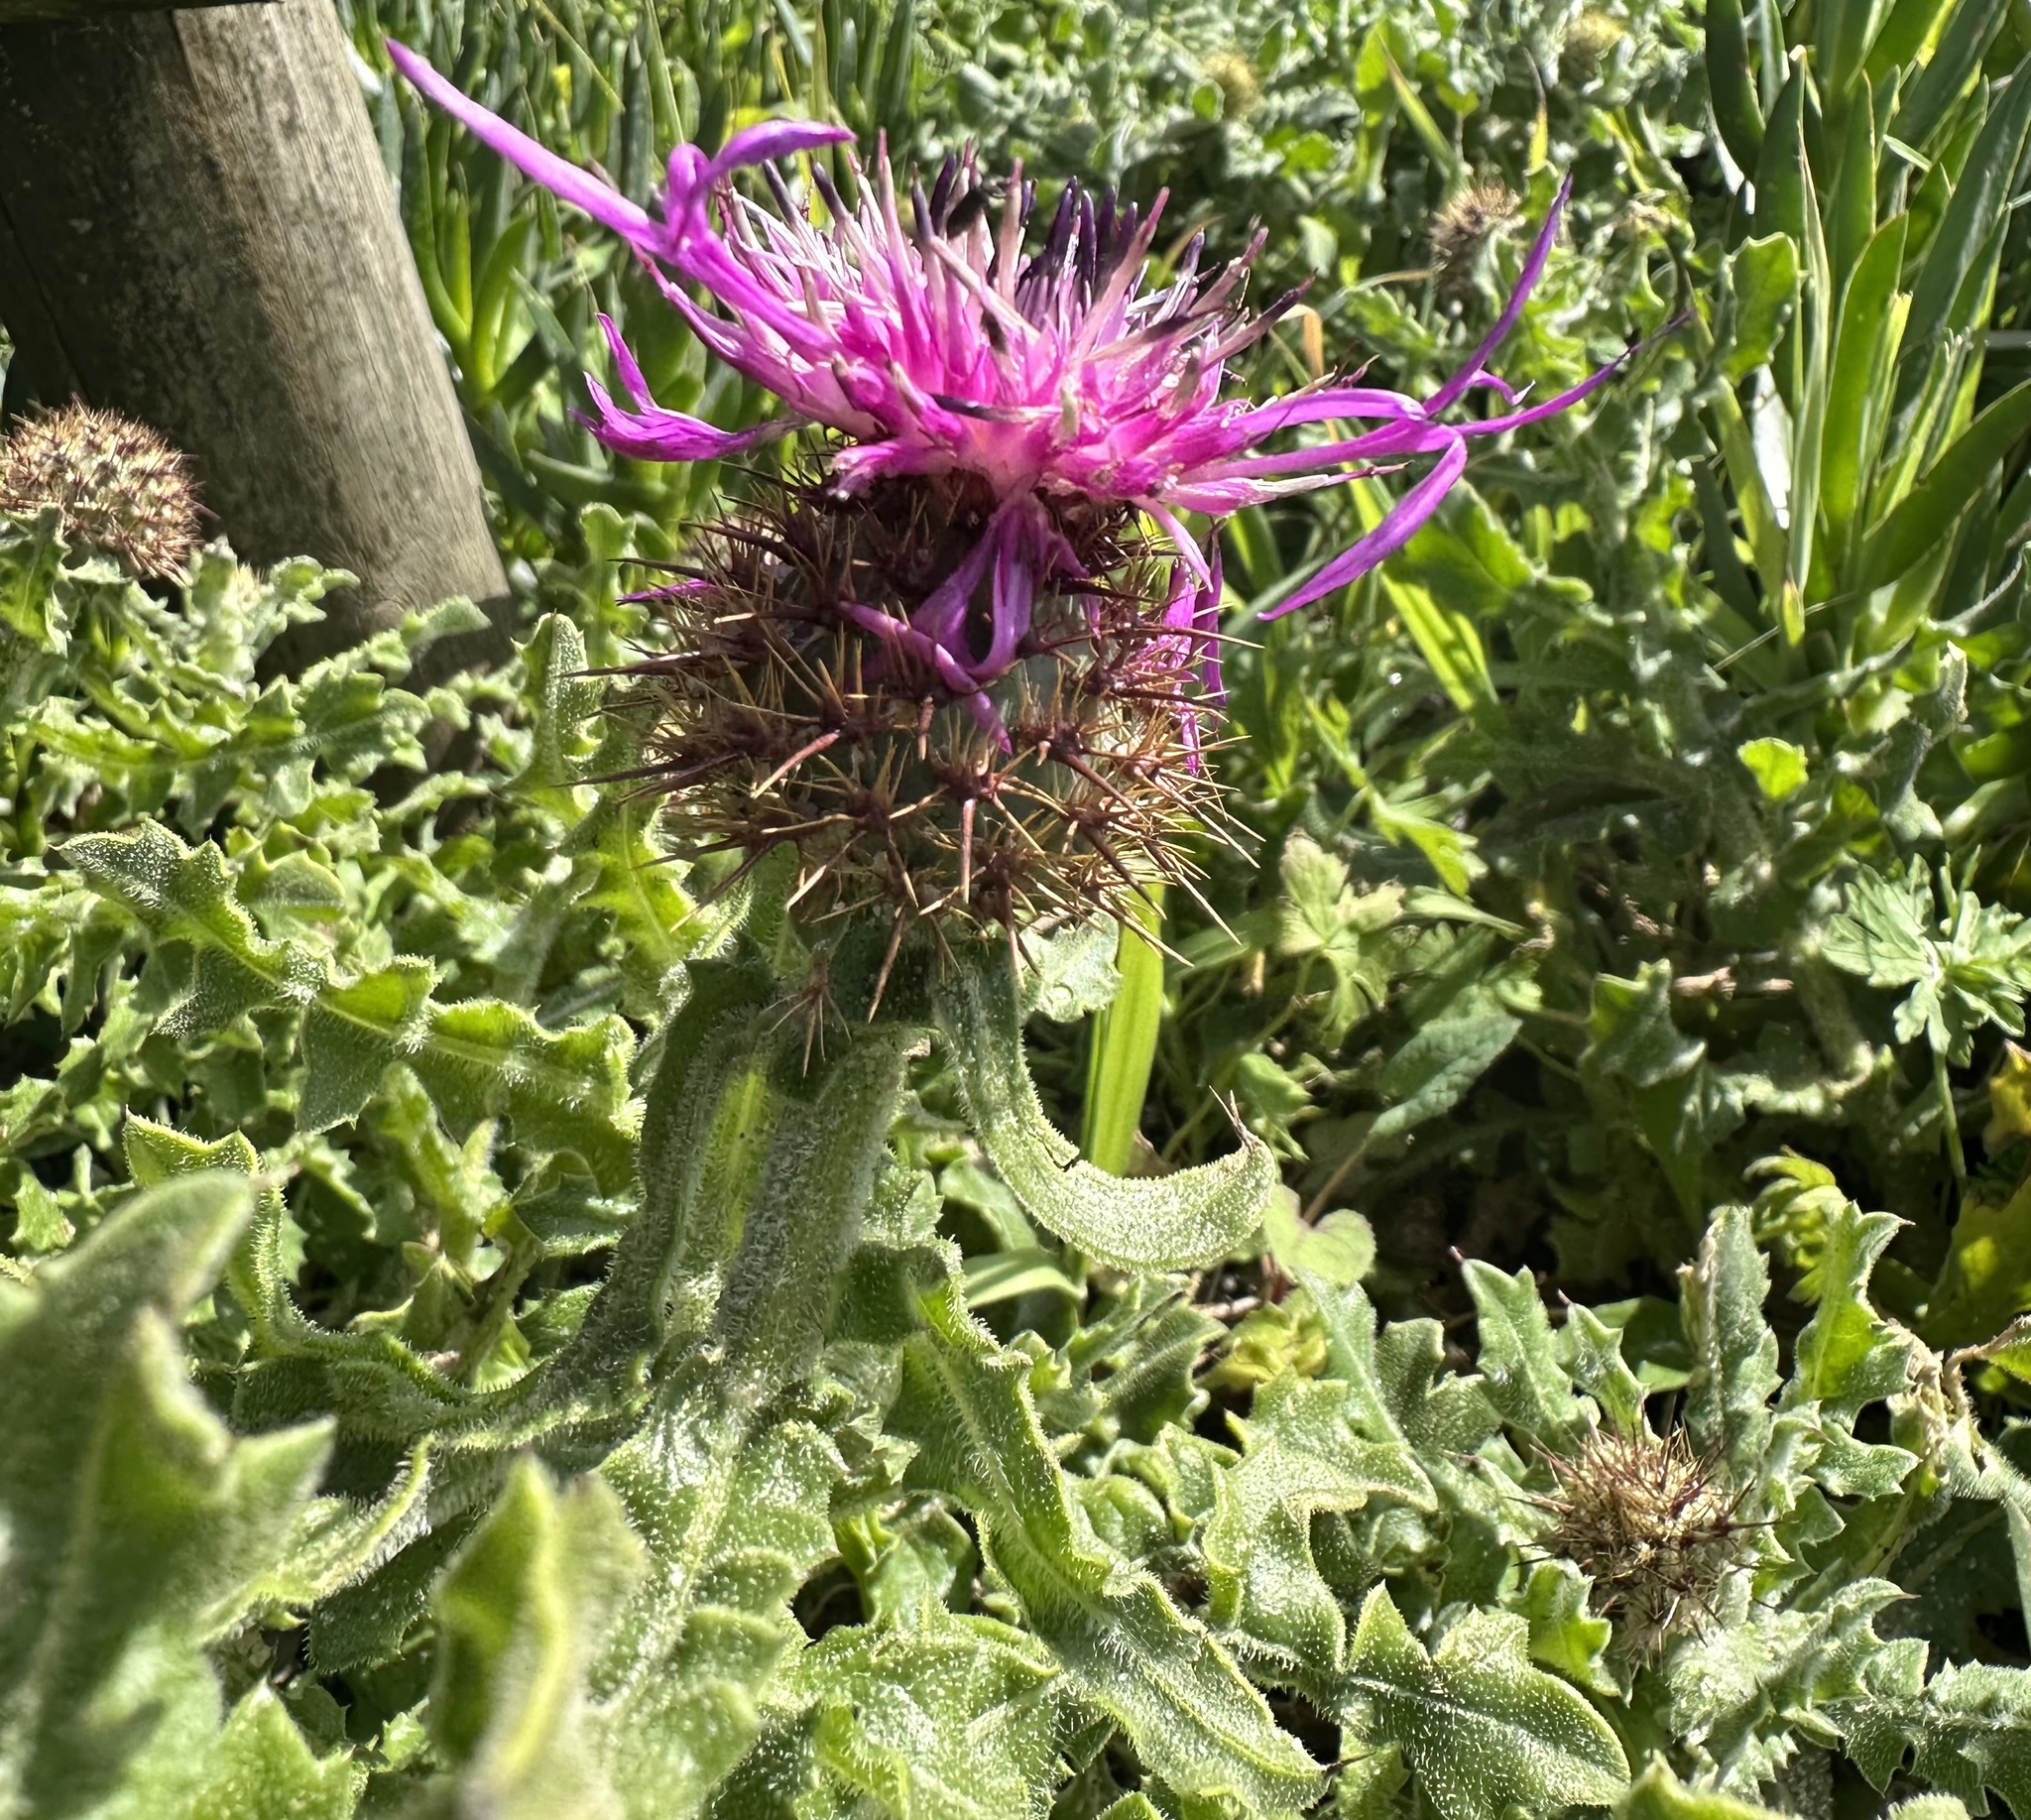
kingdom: Plantae
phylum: Tracheophyta
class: Magnoliopsida
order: Asterales
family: Asteraceae
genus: Centaurea
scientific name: Centaurea polyacantha
